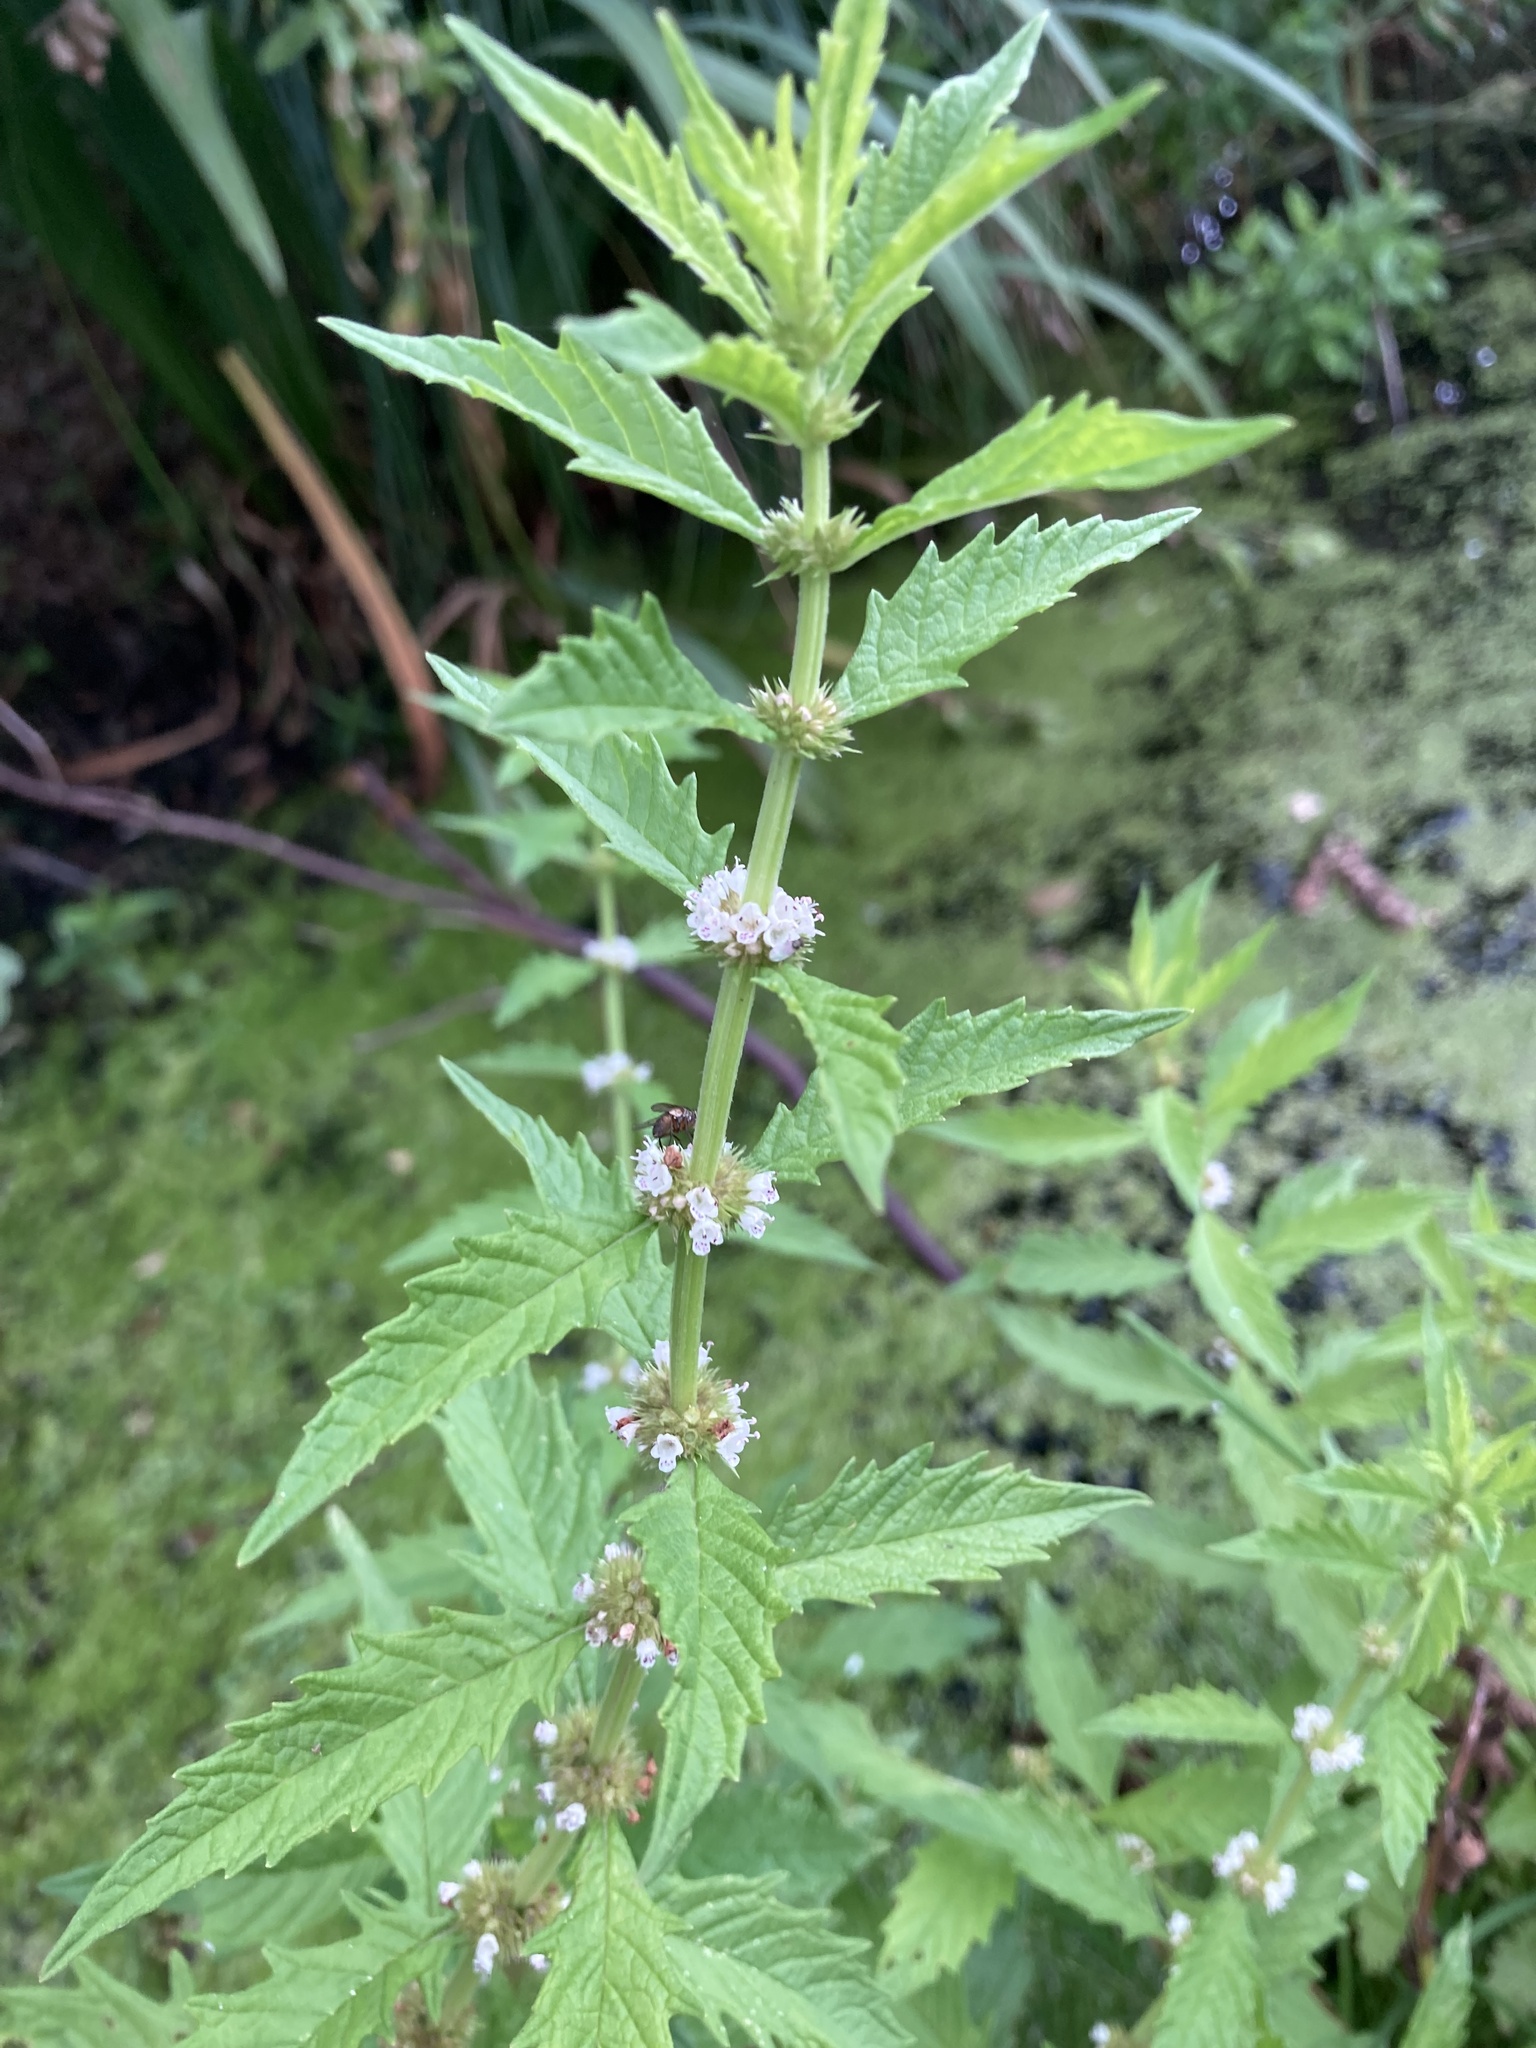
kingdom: Plantae
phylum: Tracheophyta
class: Magnoliopsida
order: Lamiales
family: Lamiaceae
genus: Lycopus
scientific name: Lycopus europaeus
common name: European bugleweed
